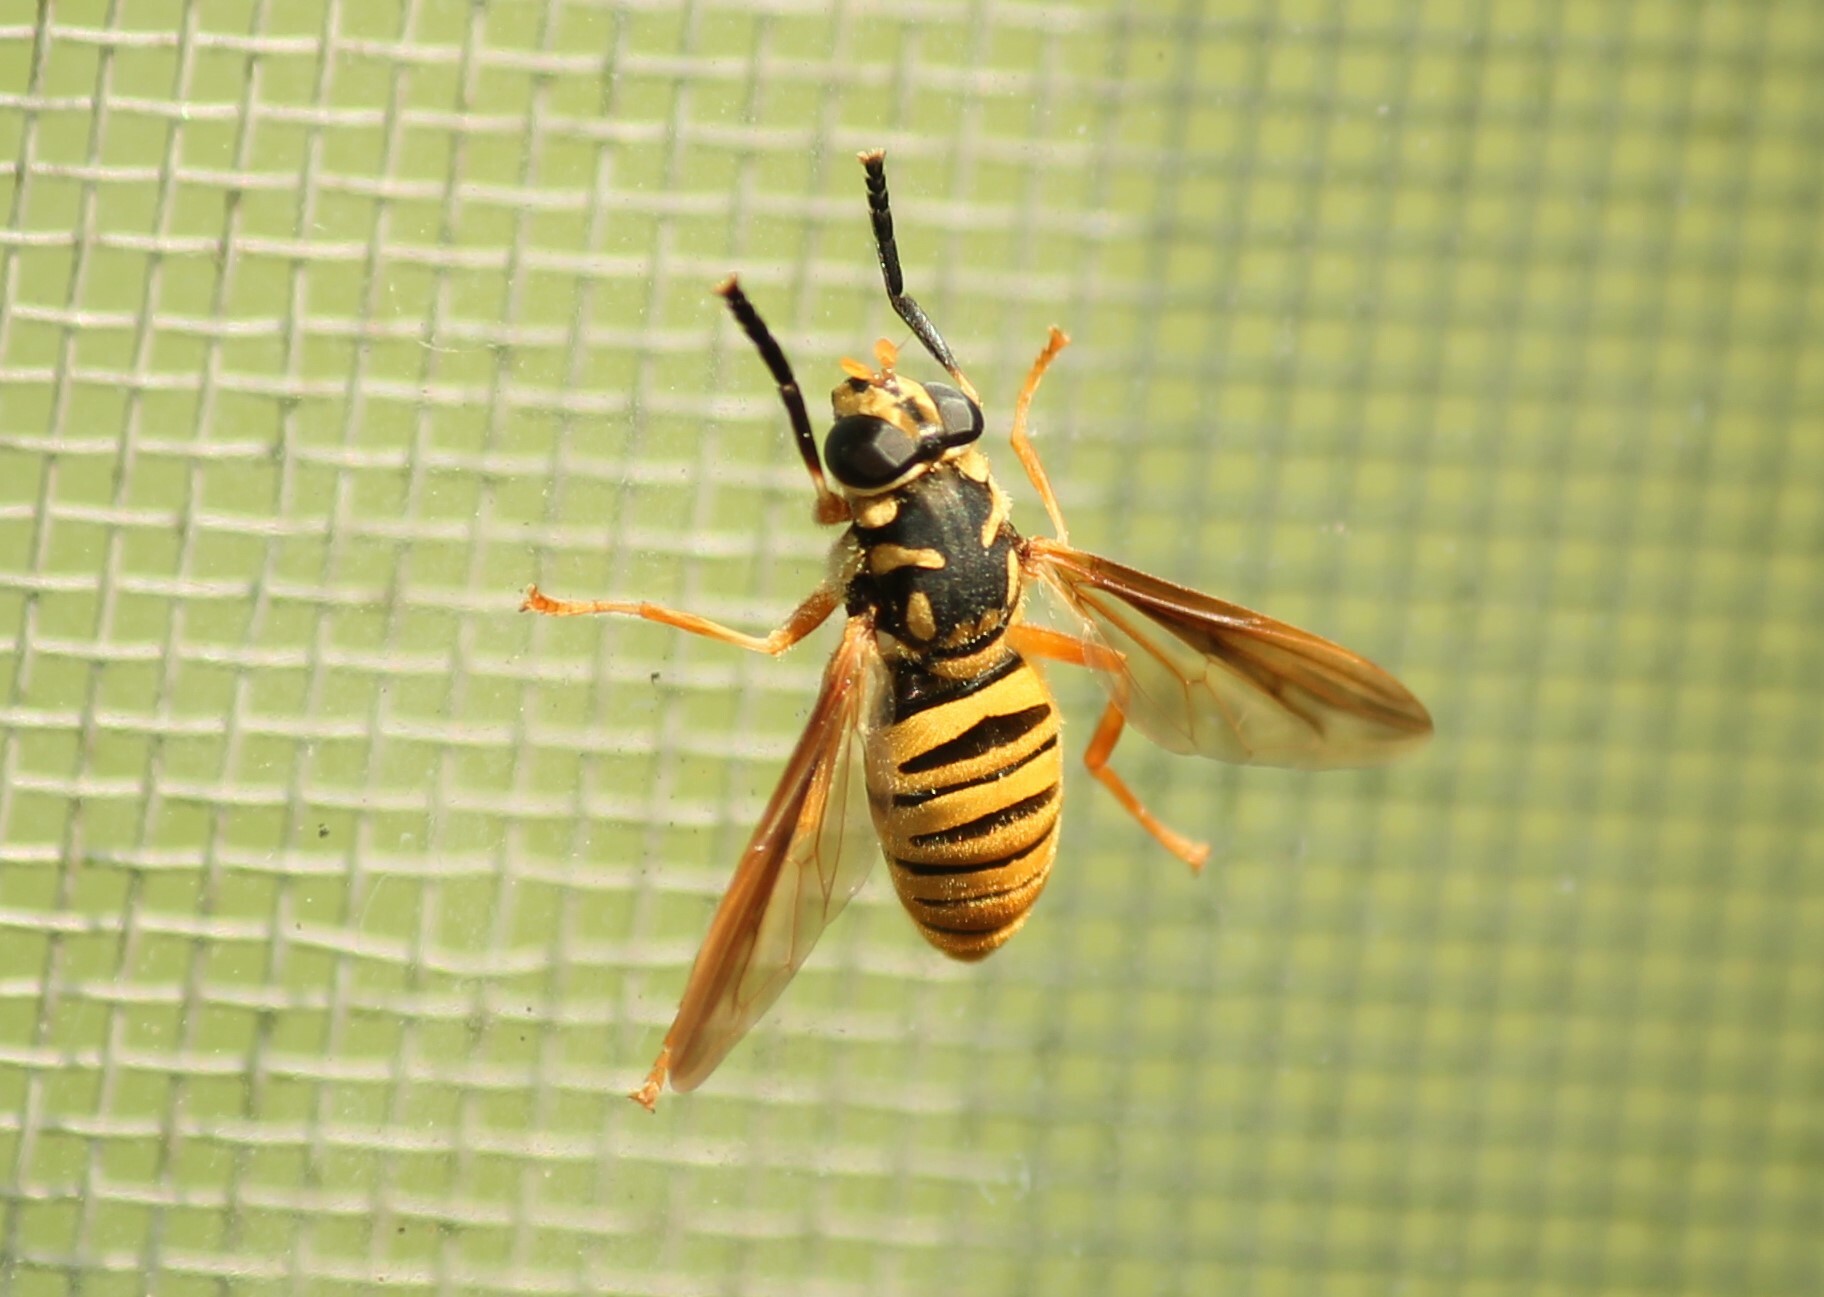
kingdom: Animalia
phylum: Arthropoda
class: Insecta
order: Diptera
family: Syrphidae
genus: Temnostoma
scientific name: Temnostoma daochum
